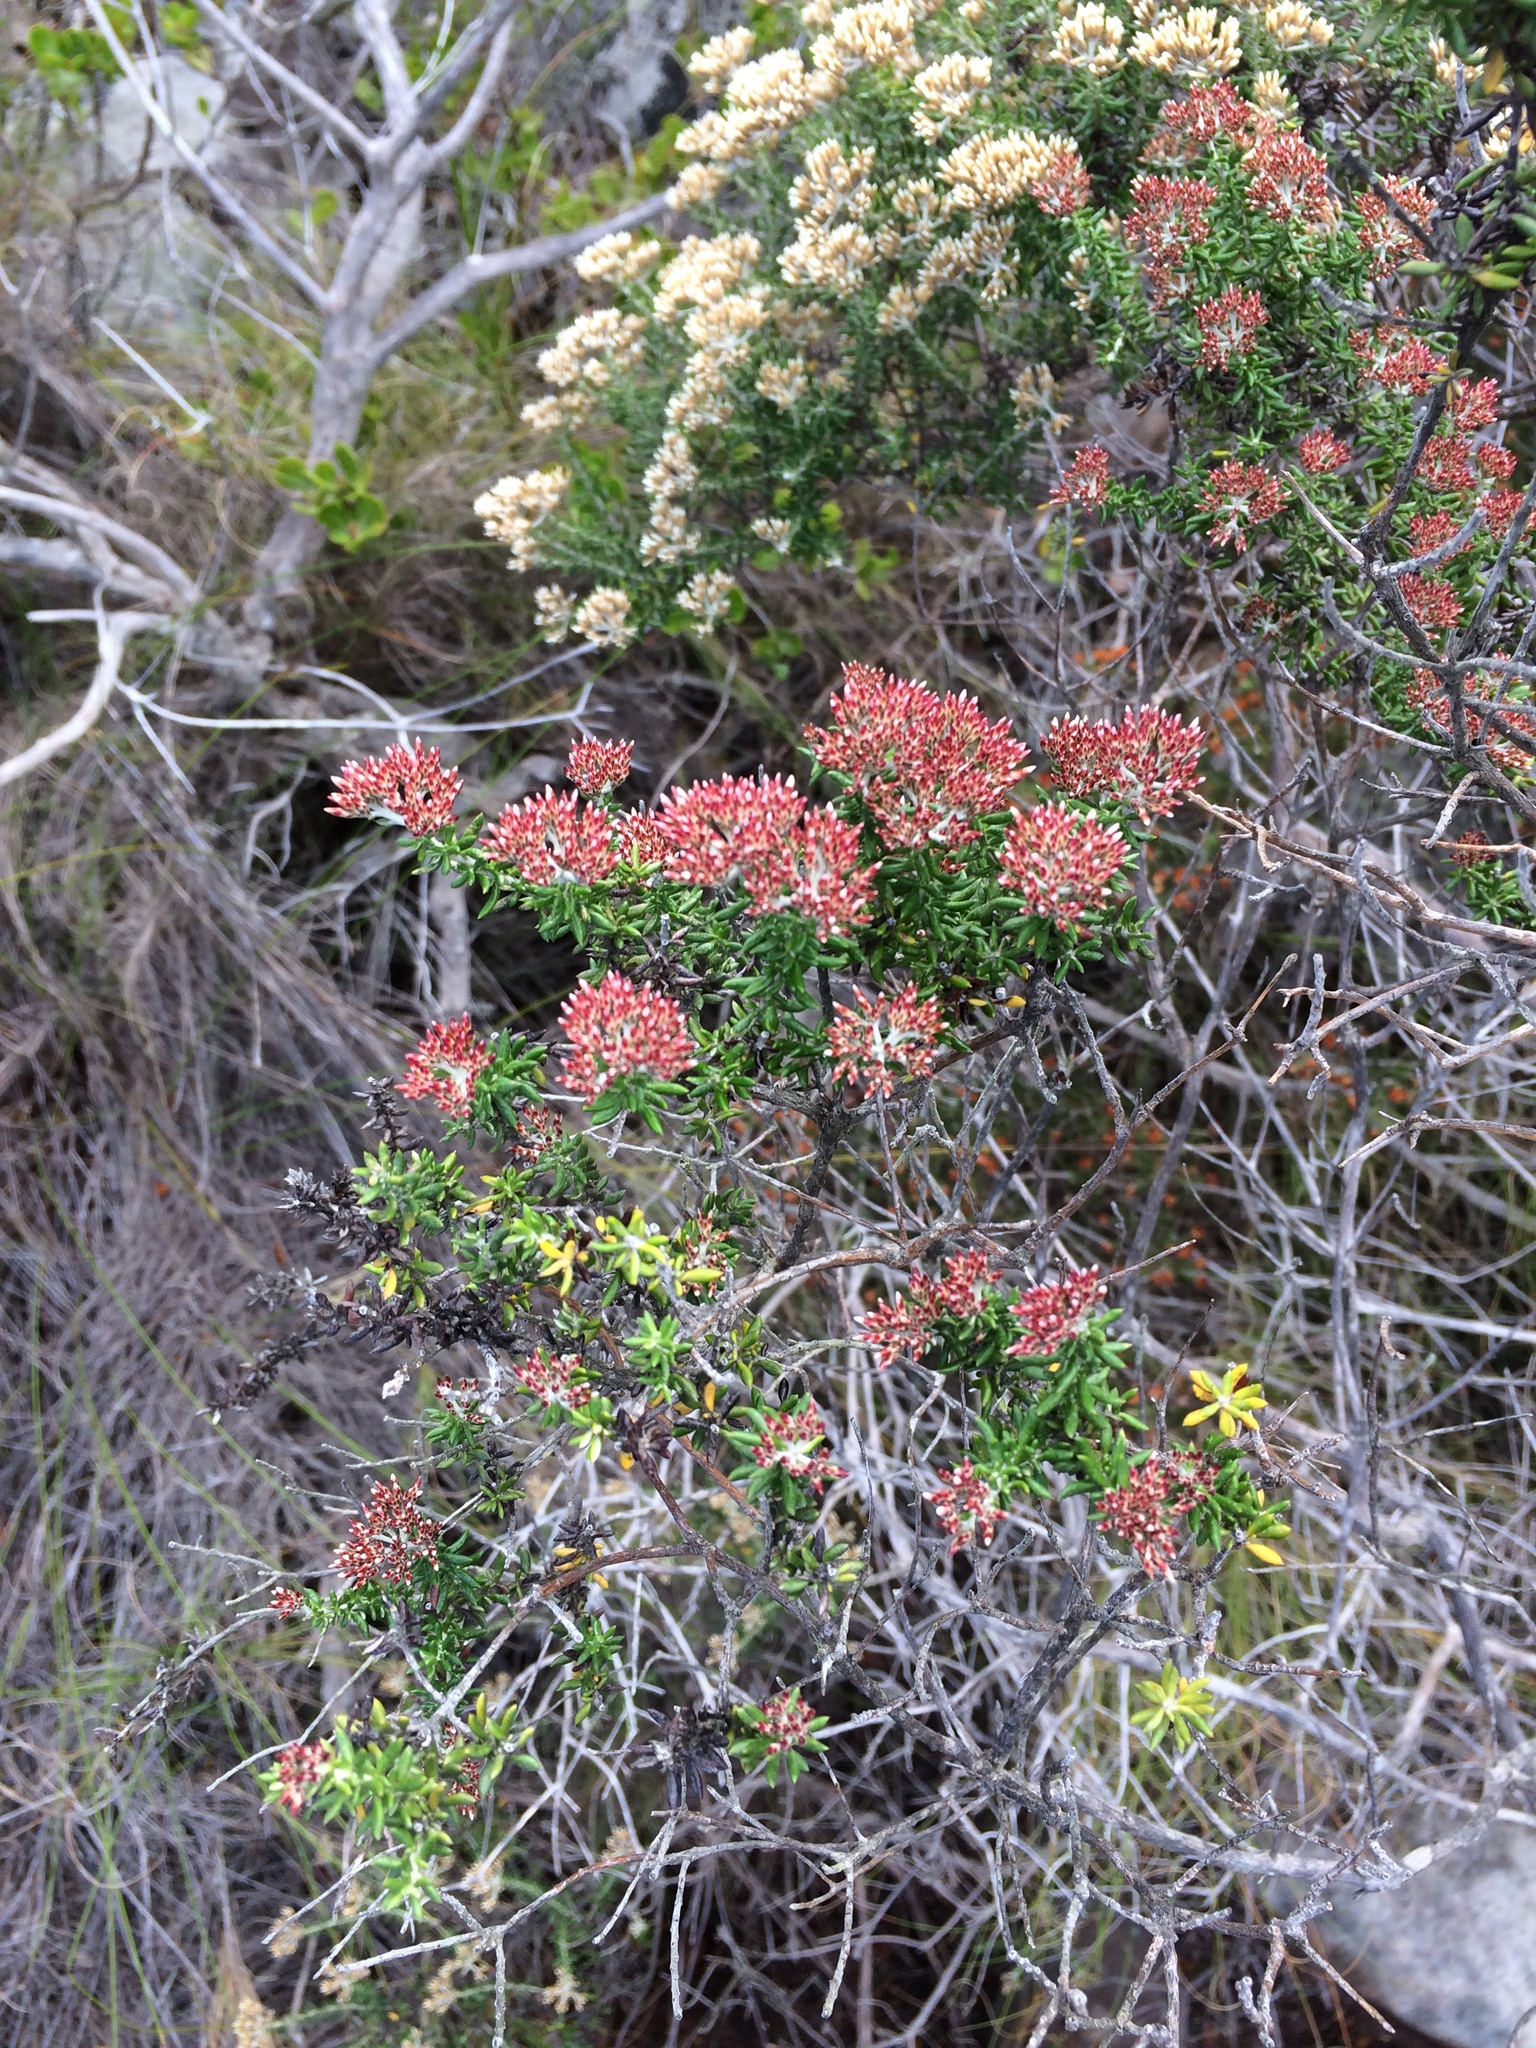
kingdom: Plantae
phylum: Tracheophyta
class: Magnoliopsida
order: Asterales
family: Asteraceae
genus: Metalasia
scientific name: Metalasia densa
